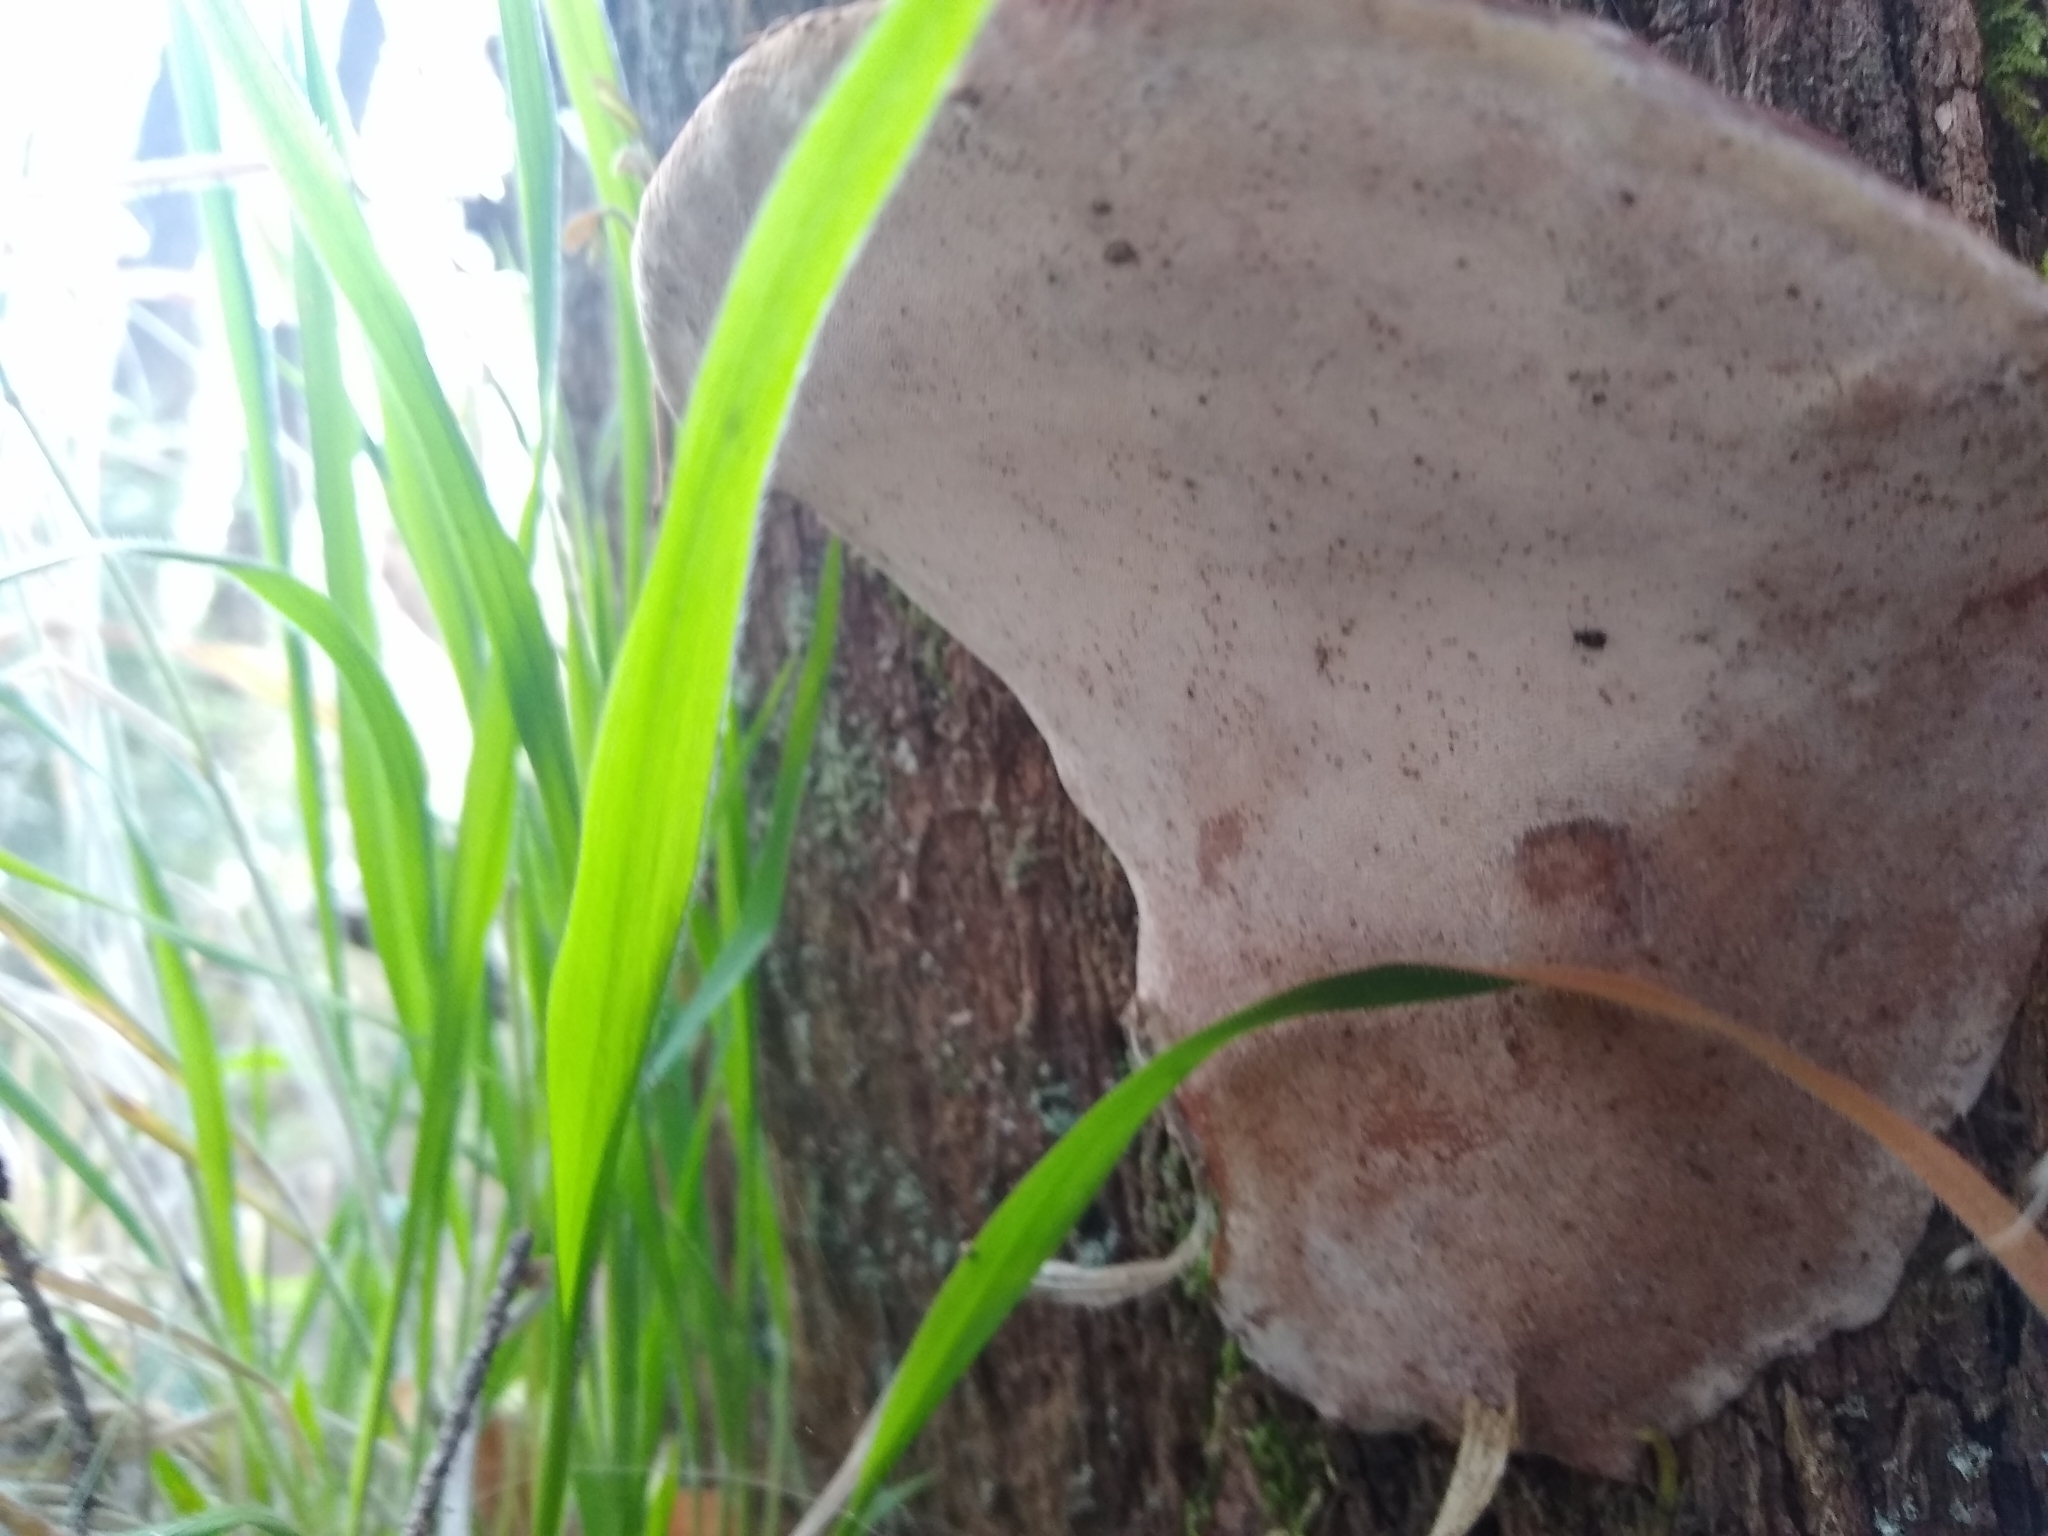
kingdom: Fungi
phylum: Basidiomycota
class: Agaricomycetes
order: Polyporales
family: Polyporaceae
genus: Ganoderma
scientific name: Ganoderma applanatum
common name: Artist's bracket
